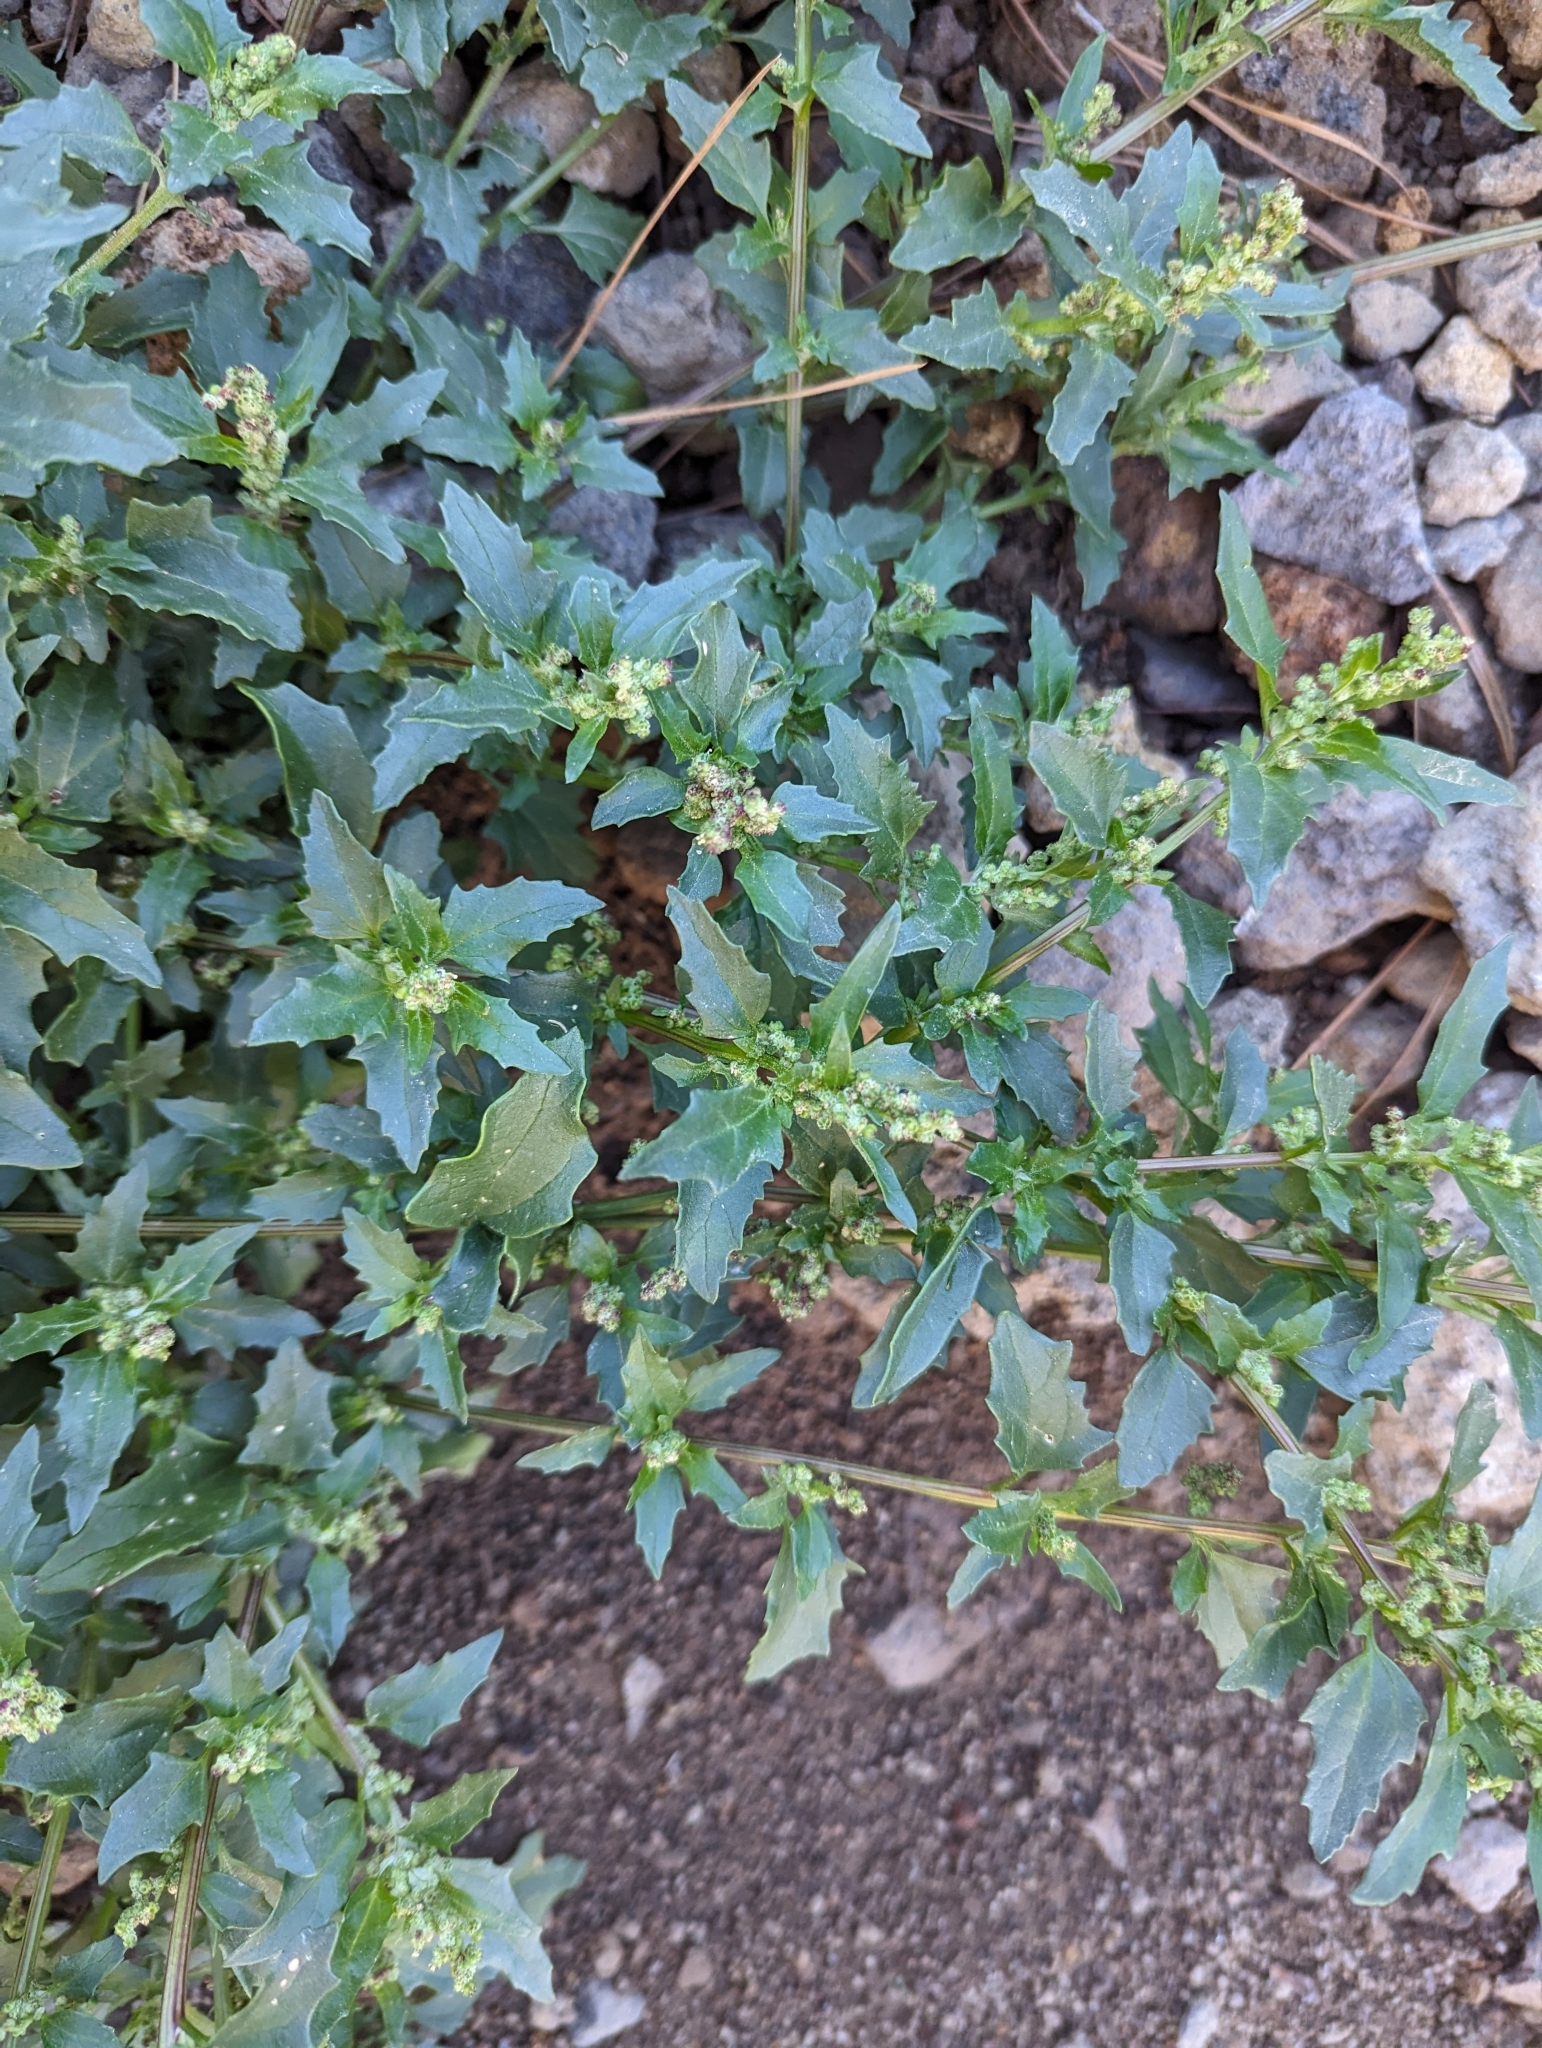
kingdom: Plantae
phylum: Tracheophyta
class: Magnoliopsida
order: Caryophyllales
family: Amaranthaceae
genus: Chenopodiastrum
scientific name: Chenopodiastrum murale
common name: Sowbane
